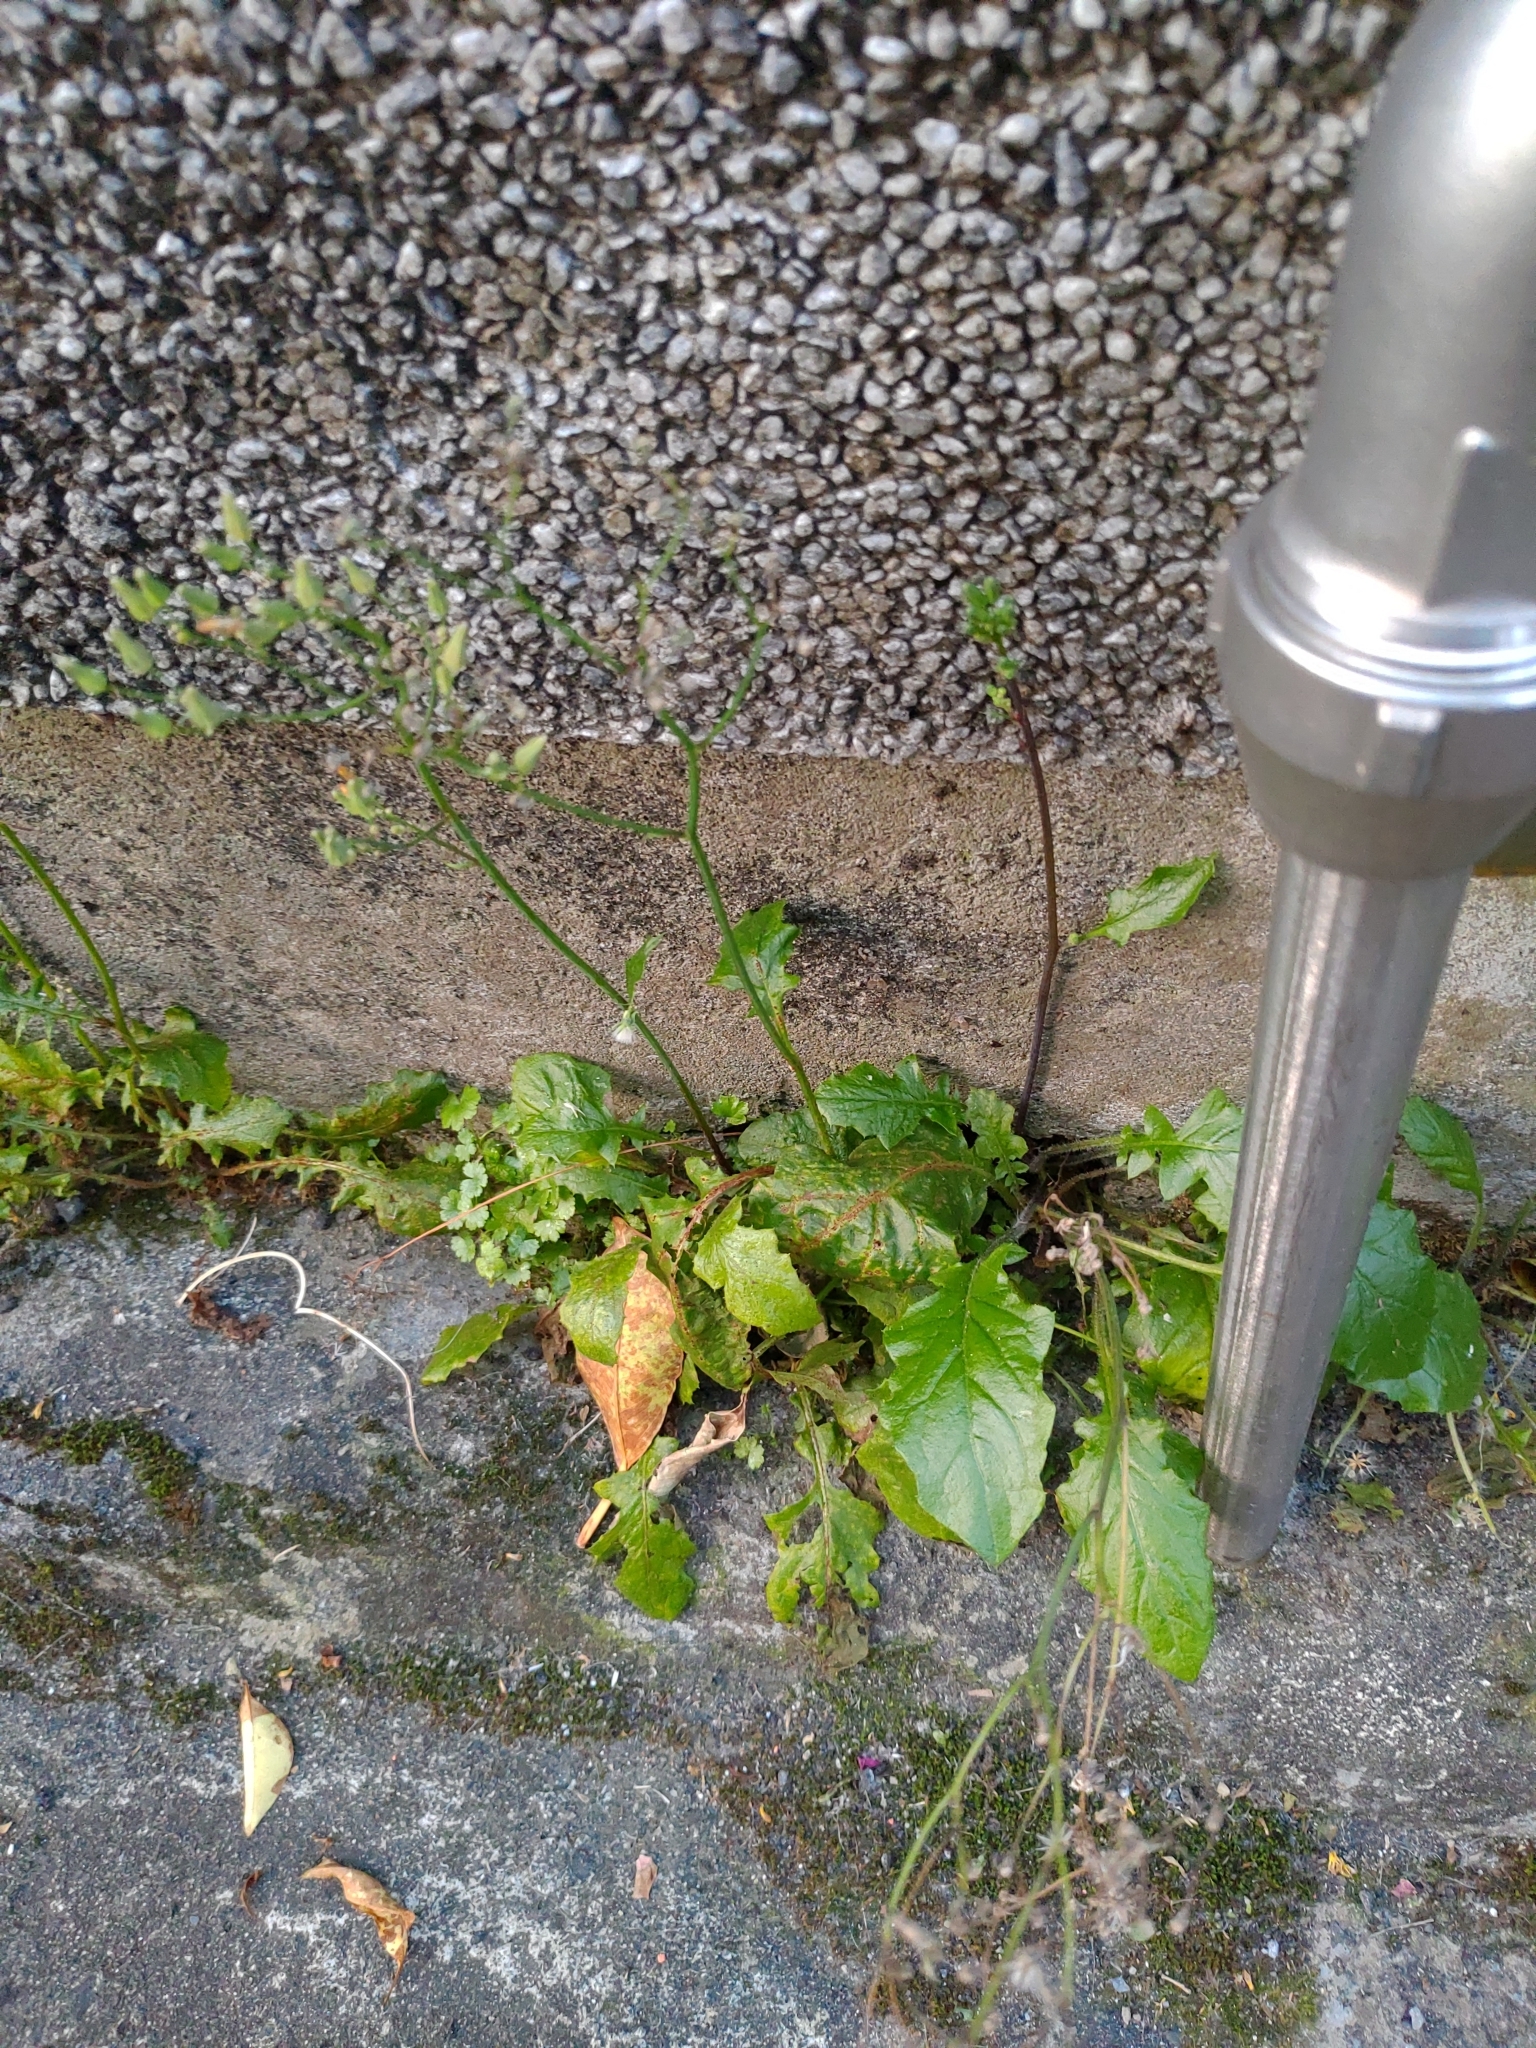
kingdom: Plantae
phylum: Tracheophyta
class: Magnoliopsida
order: Asterales
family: Asteraceae
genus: Youngia
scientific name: Youngia japonica
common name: Oriental false hawksbeard
